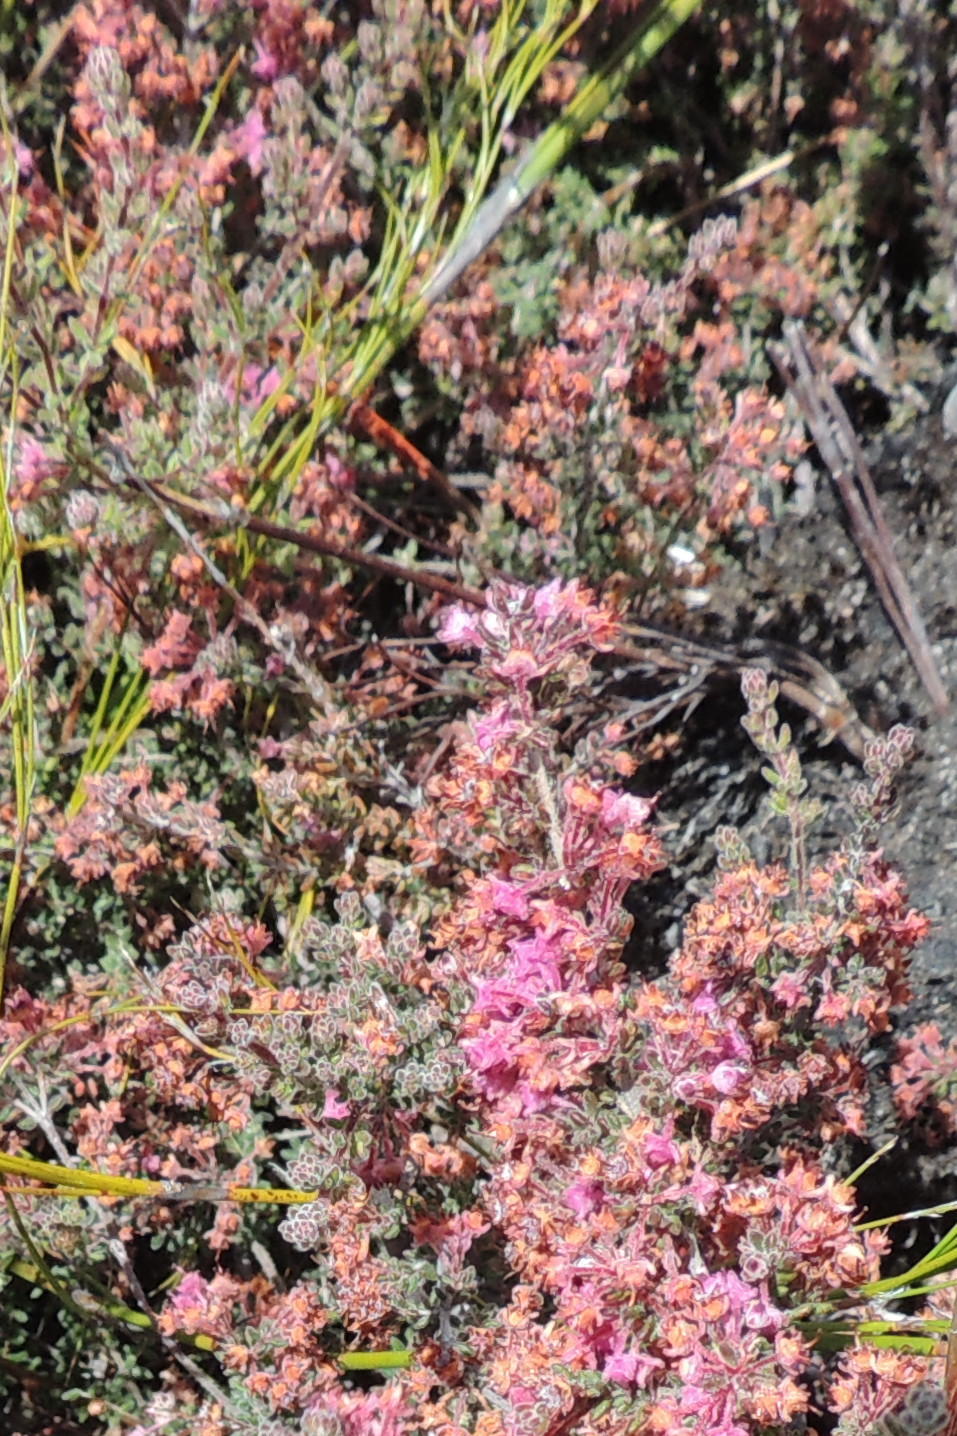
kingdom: Plantae
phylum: Tracheophyta
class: Magnoliopsida
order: Ericales
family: Ericaceae
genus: Erica
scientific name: Erica atropurpurea
